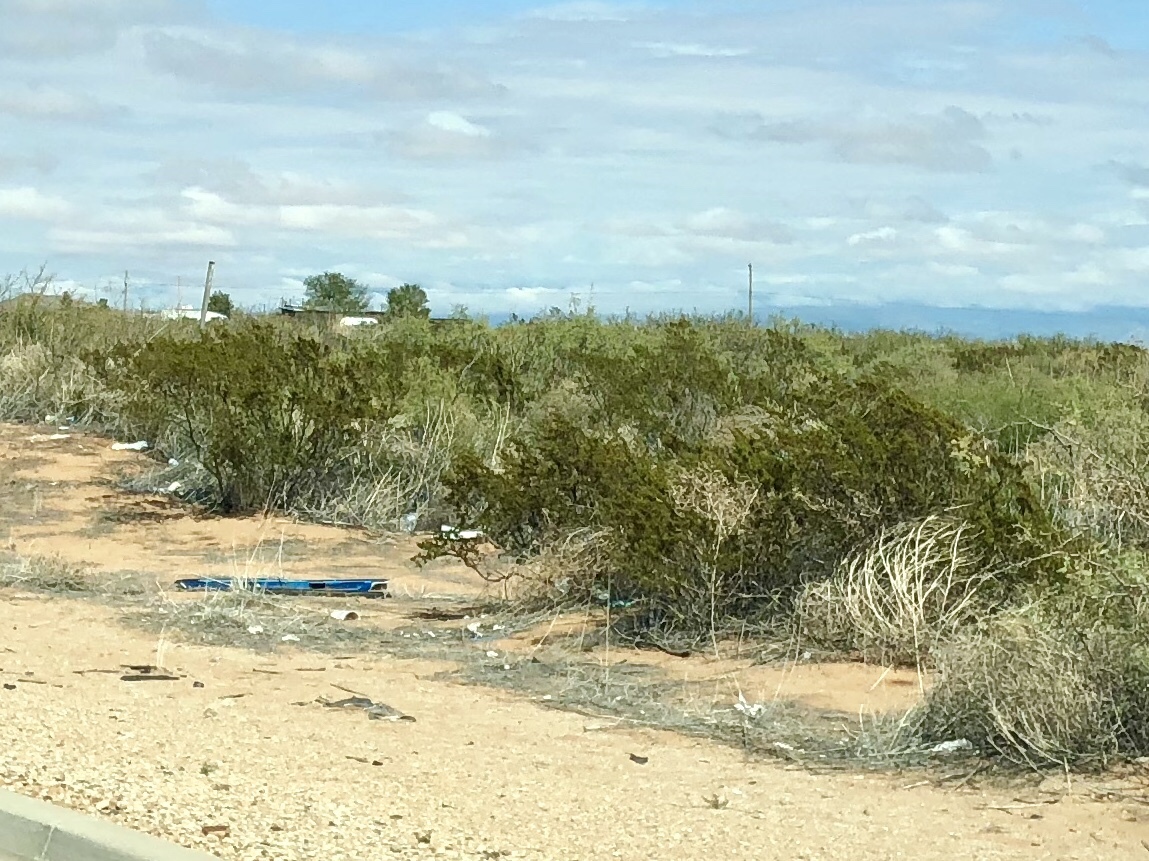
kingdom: Plantae
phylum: Tracheophyta
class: Magnoliopsida
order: Zygophyllales
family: Zygophyllaceae
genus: Larrea
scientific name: Larrea tridentata
